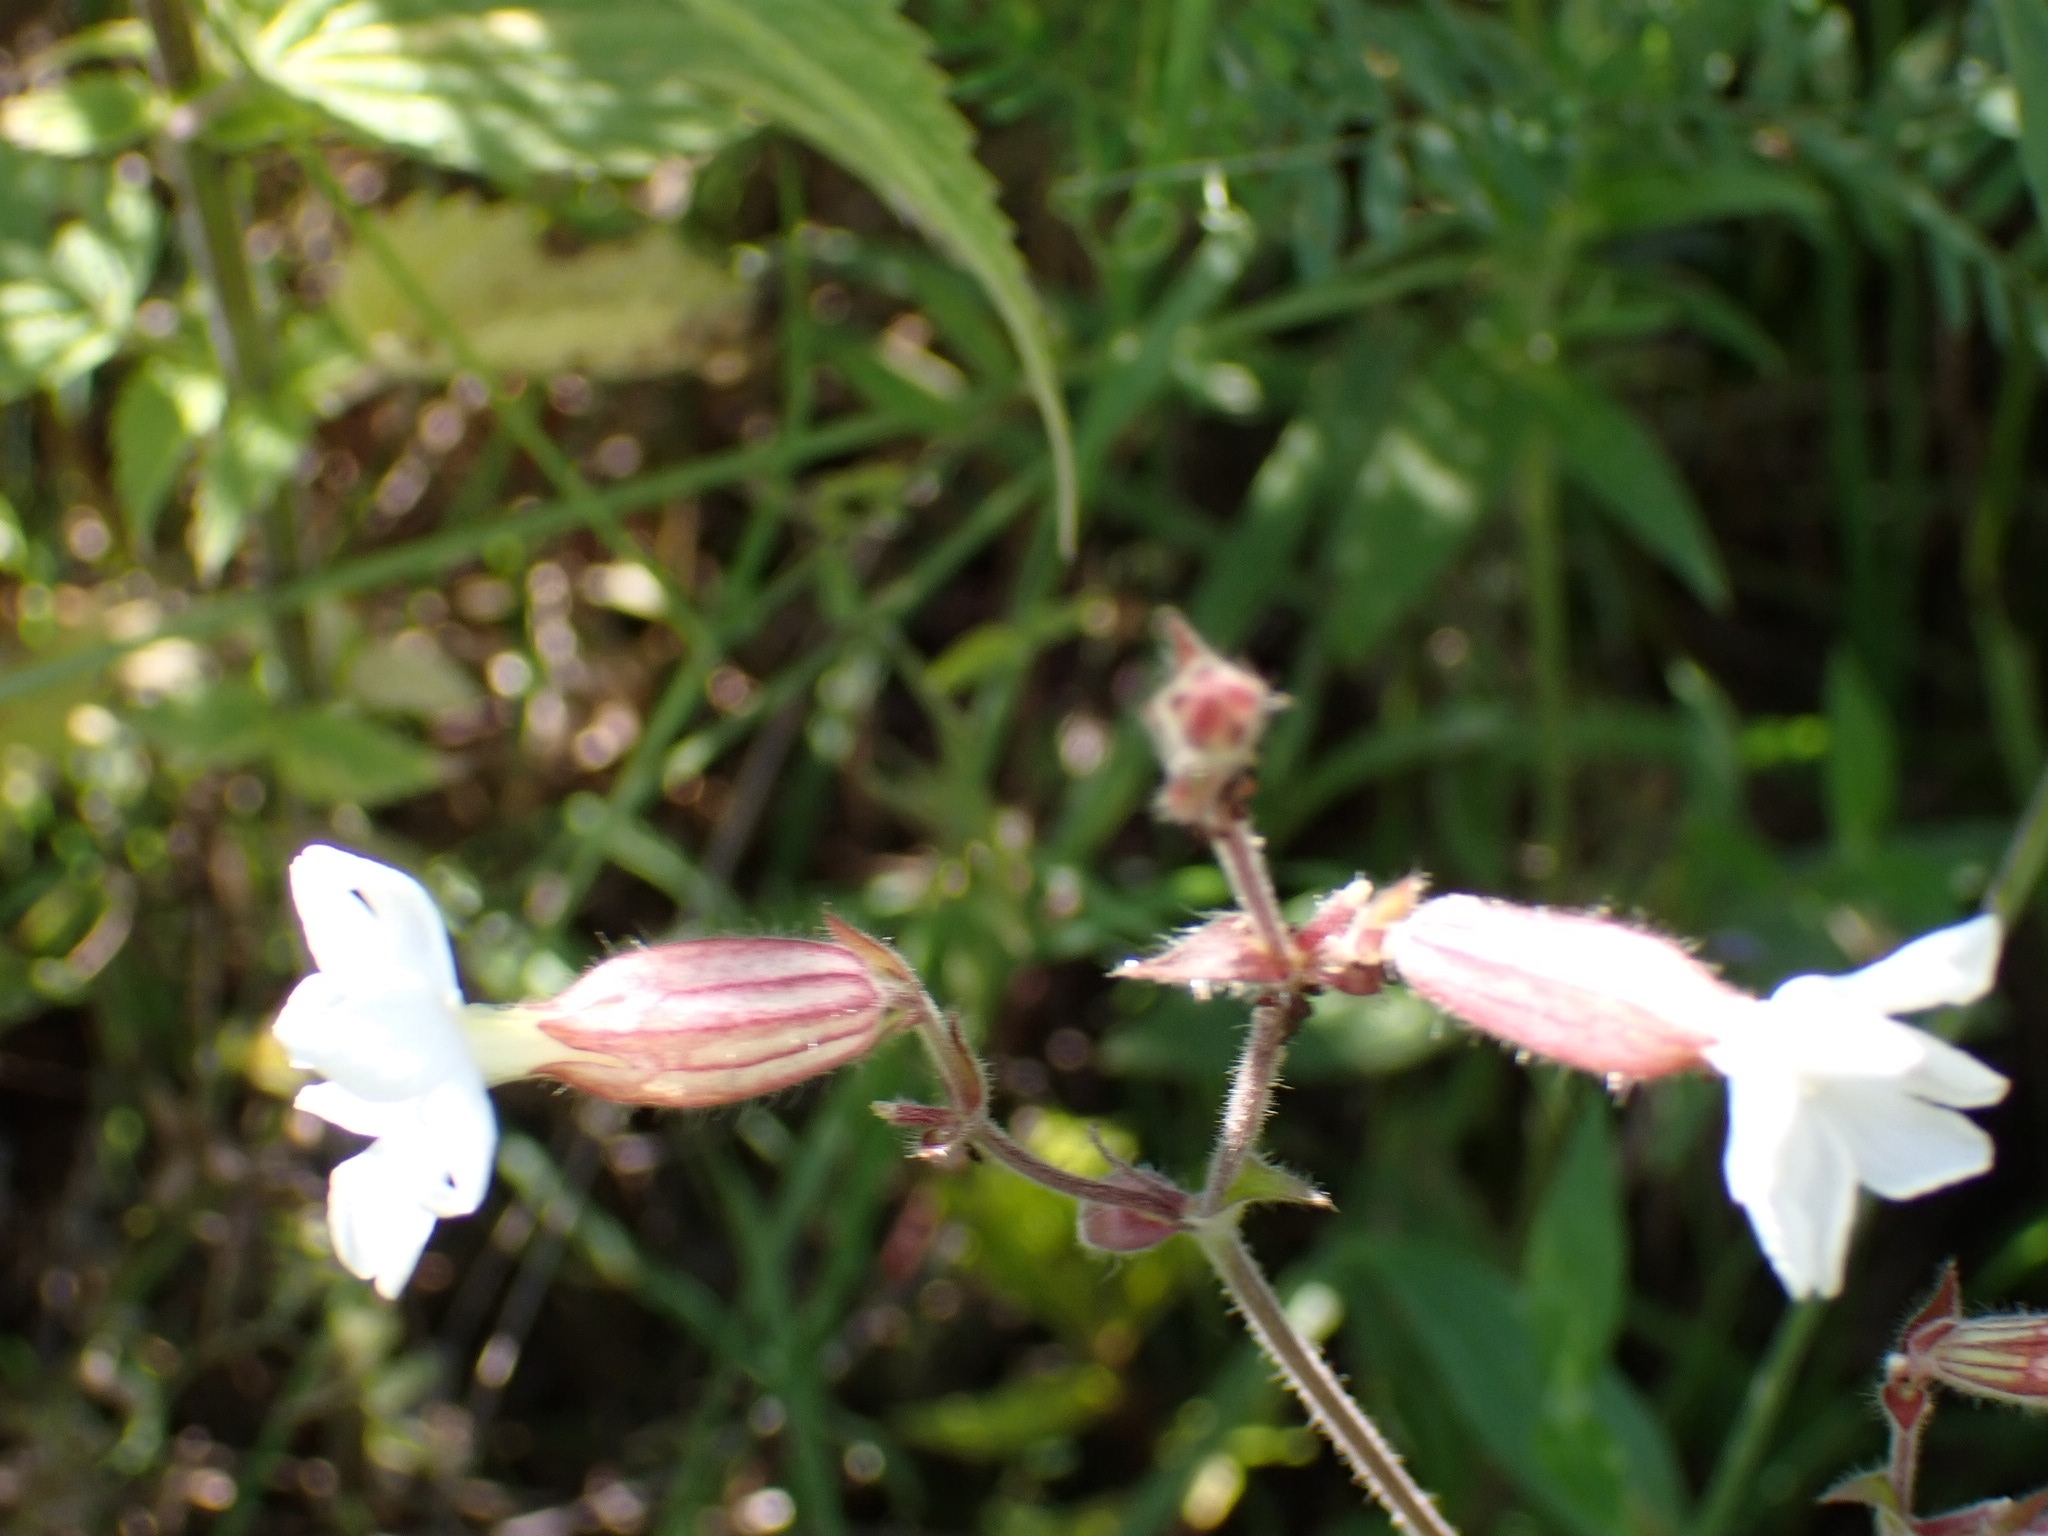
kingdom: Plantae
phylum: Tracheophyta
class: Magnoliopsida
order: Caryophyllales
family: Caryophyllaceae
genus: Silene
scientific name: Silene latifolia
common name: White campion
